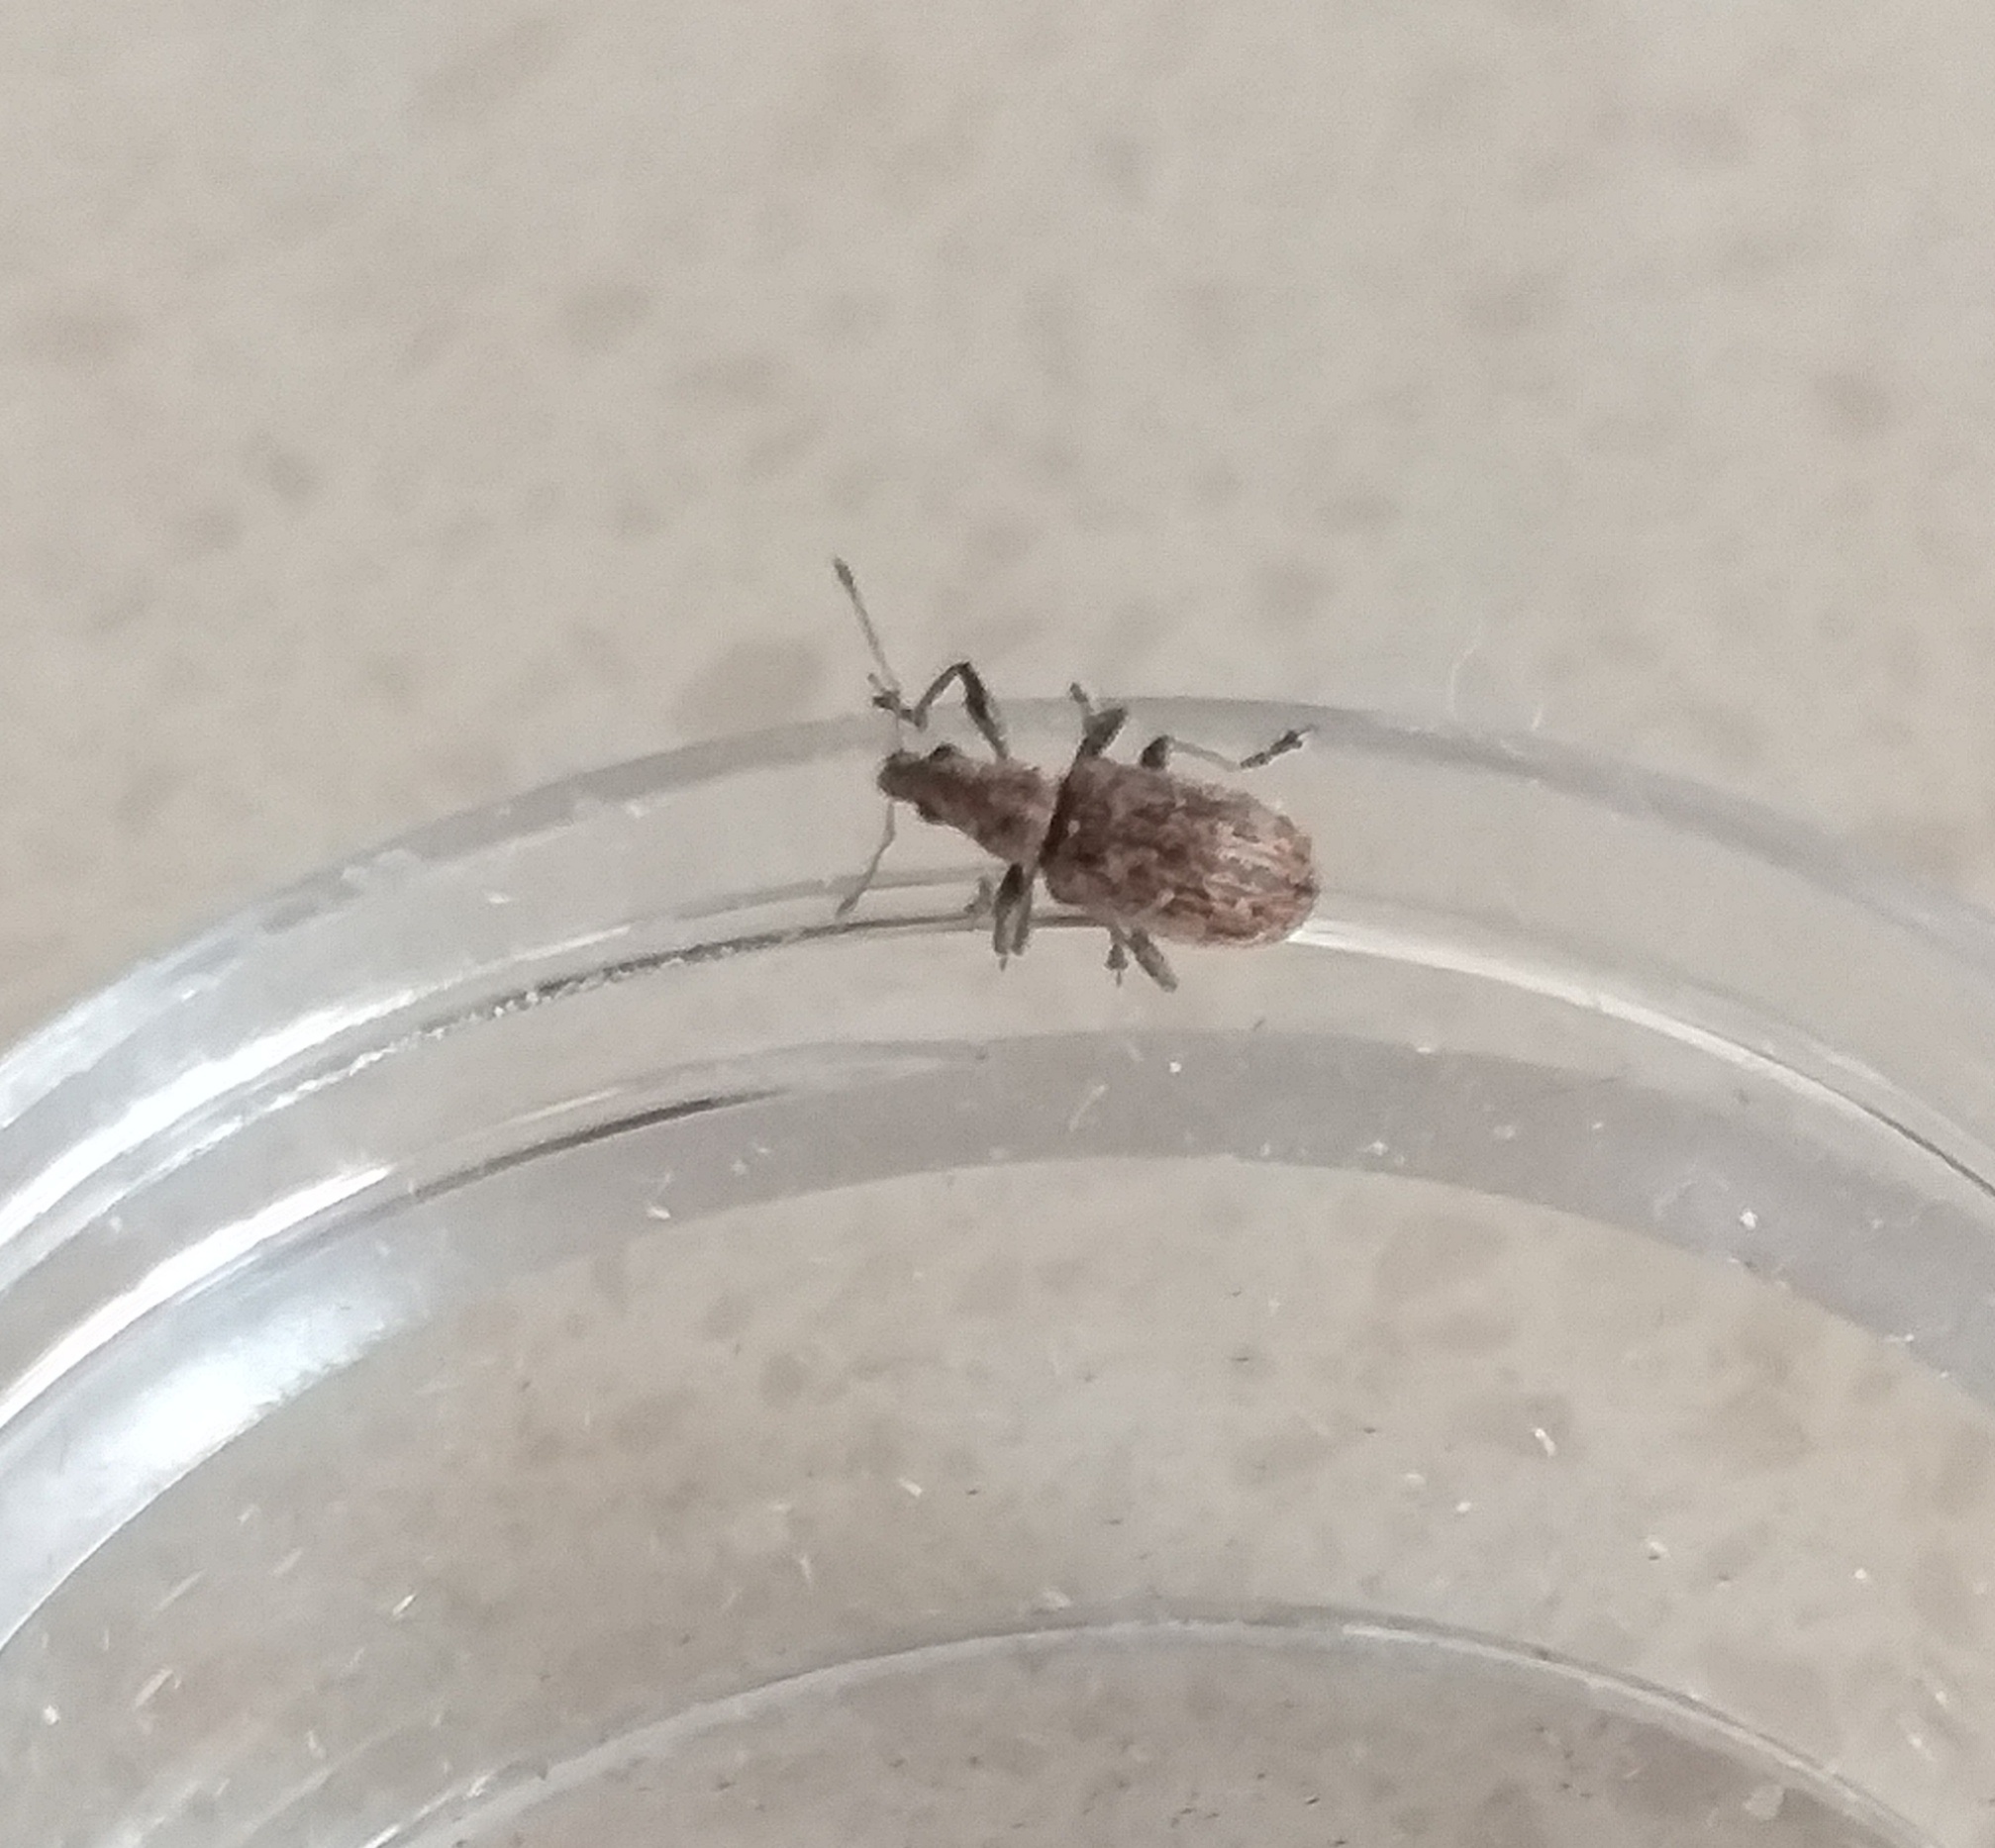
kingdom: Animalia
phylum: Arthropoda
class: Insecta
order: Coleoptera
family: Curculionidae
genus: Polydrusus
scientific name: Polydrusus cervinus
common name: Weevil
